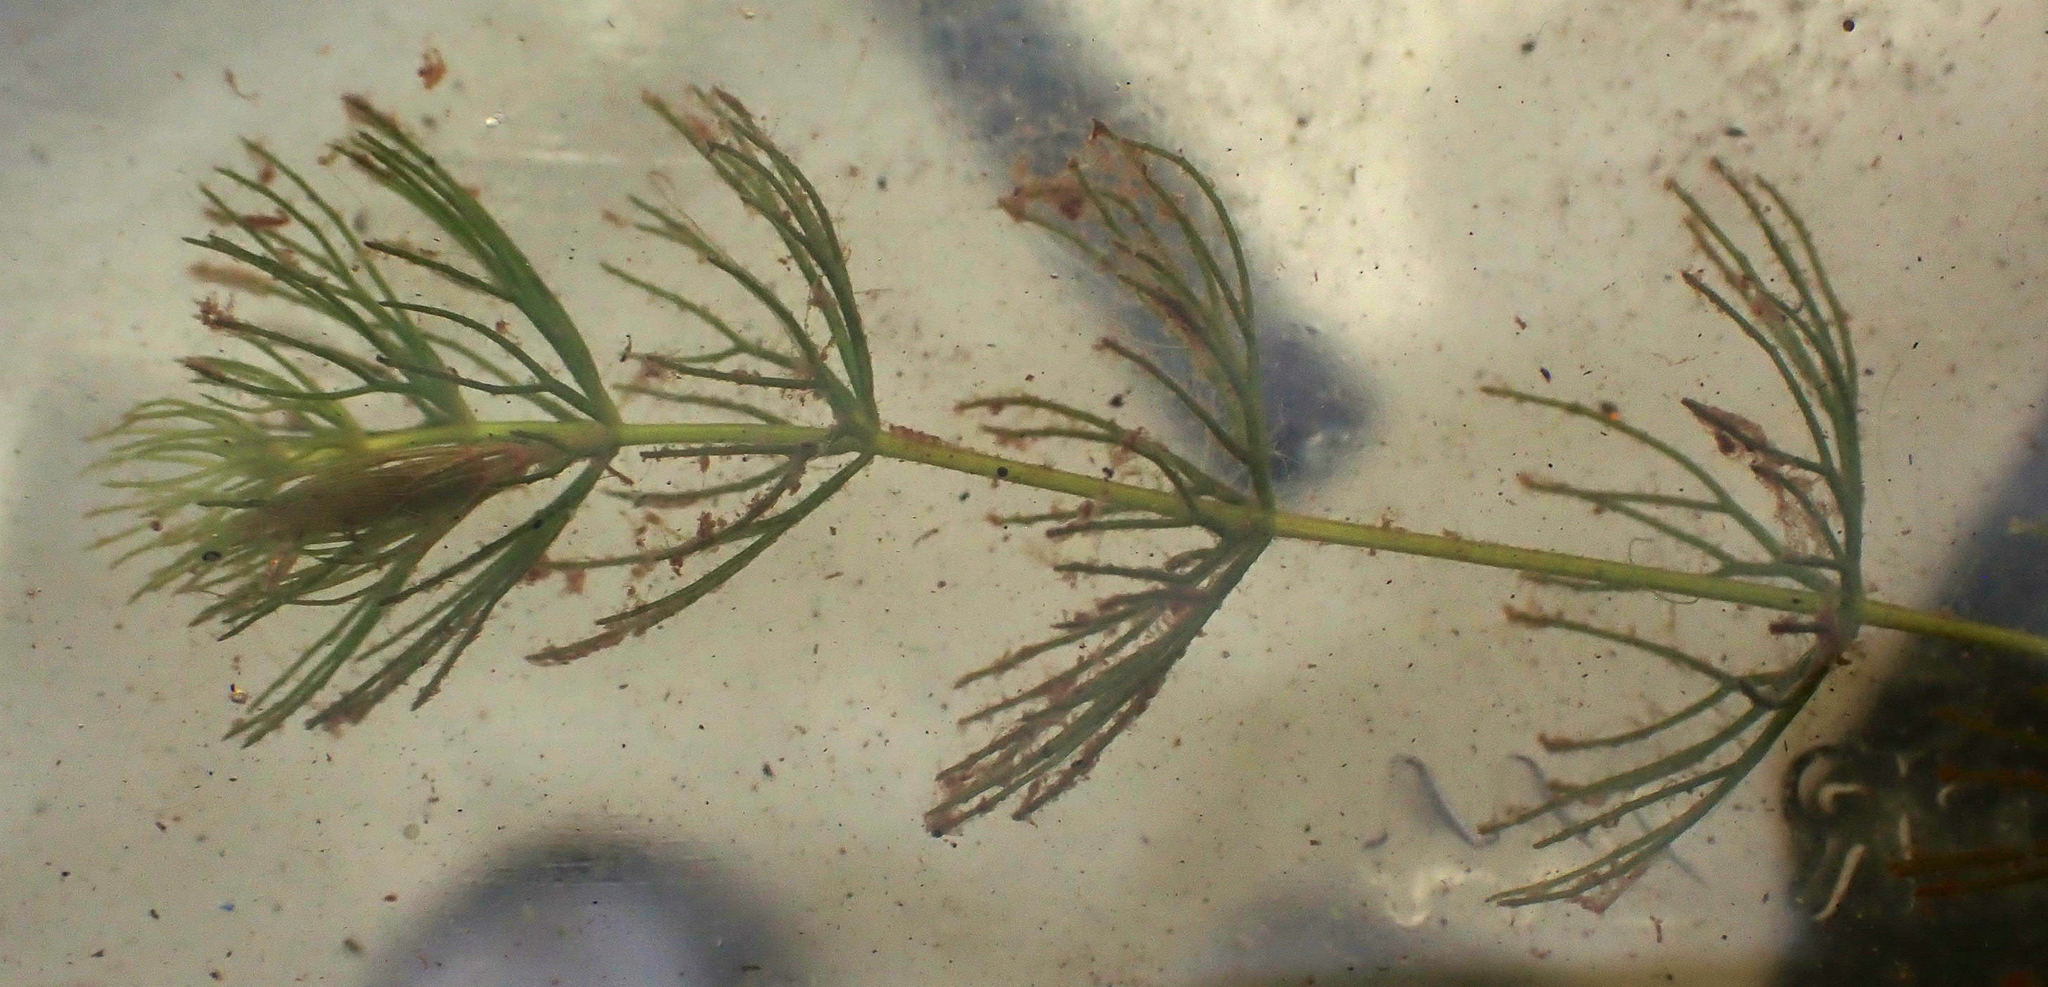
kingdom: Plantae
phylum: Tracheophyta
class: Magnoliopsida
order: Ceratophyllales
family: Ceratophyllaceae
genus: Ceratophyllum
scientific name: Ceratophyllum demersum
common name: Rigid hornwort
